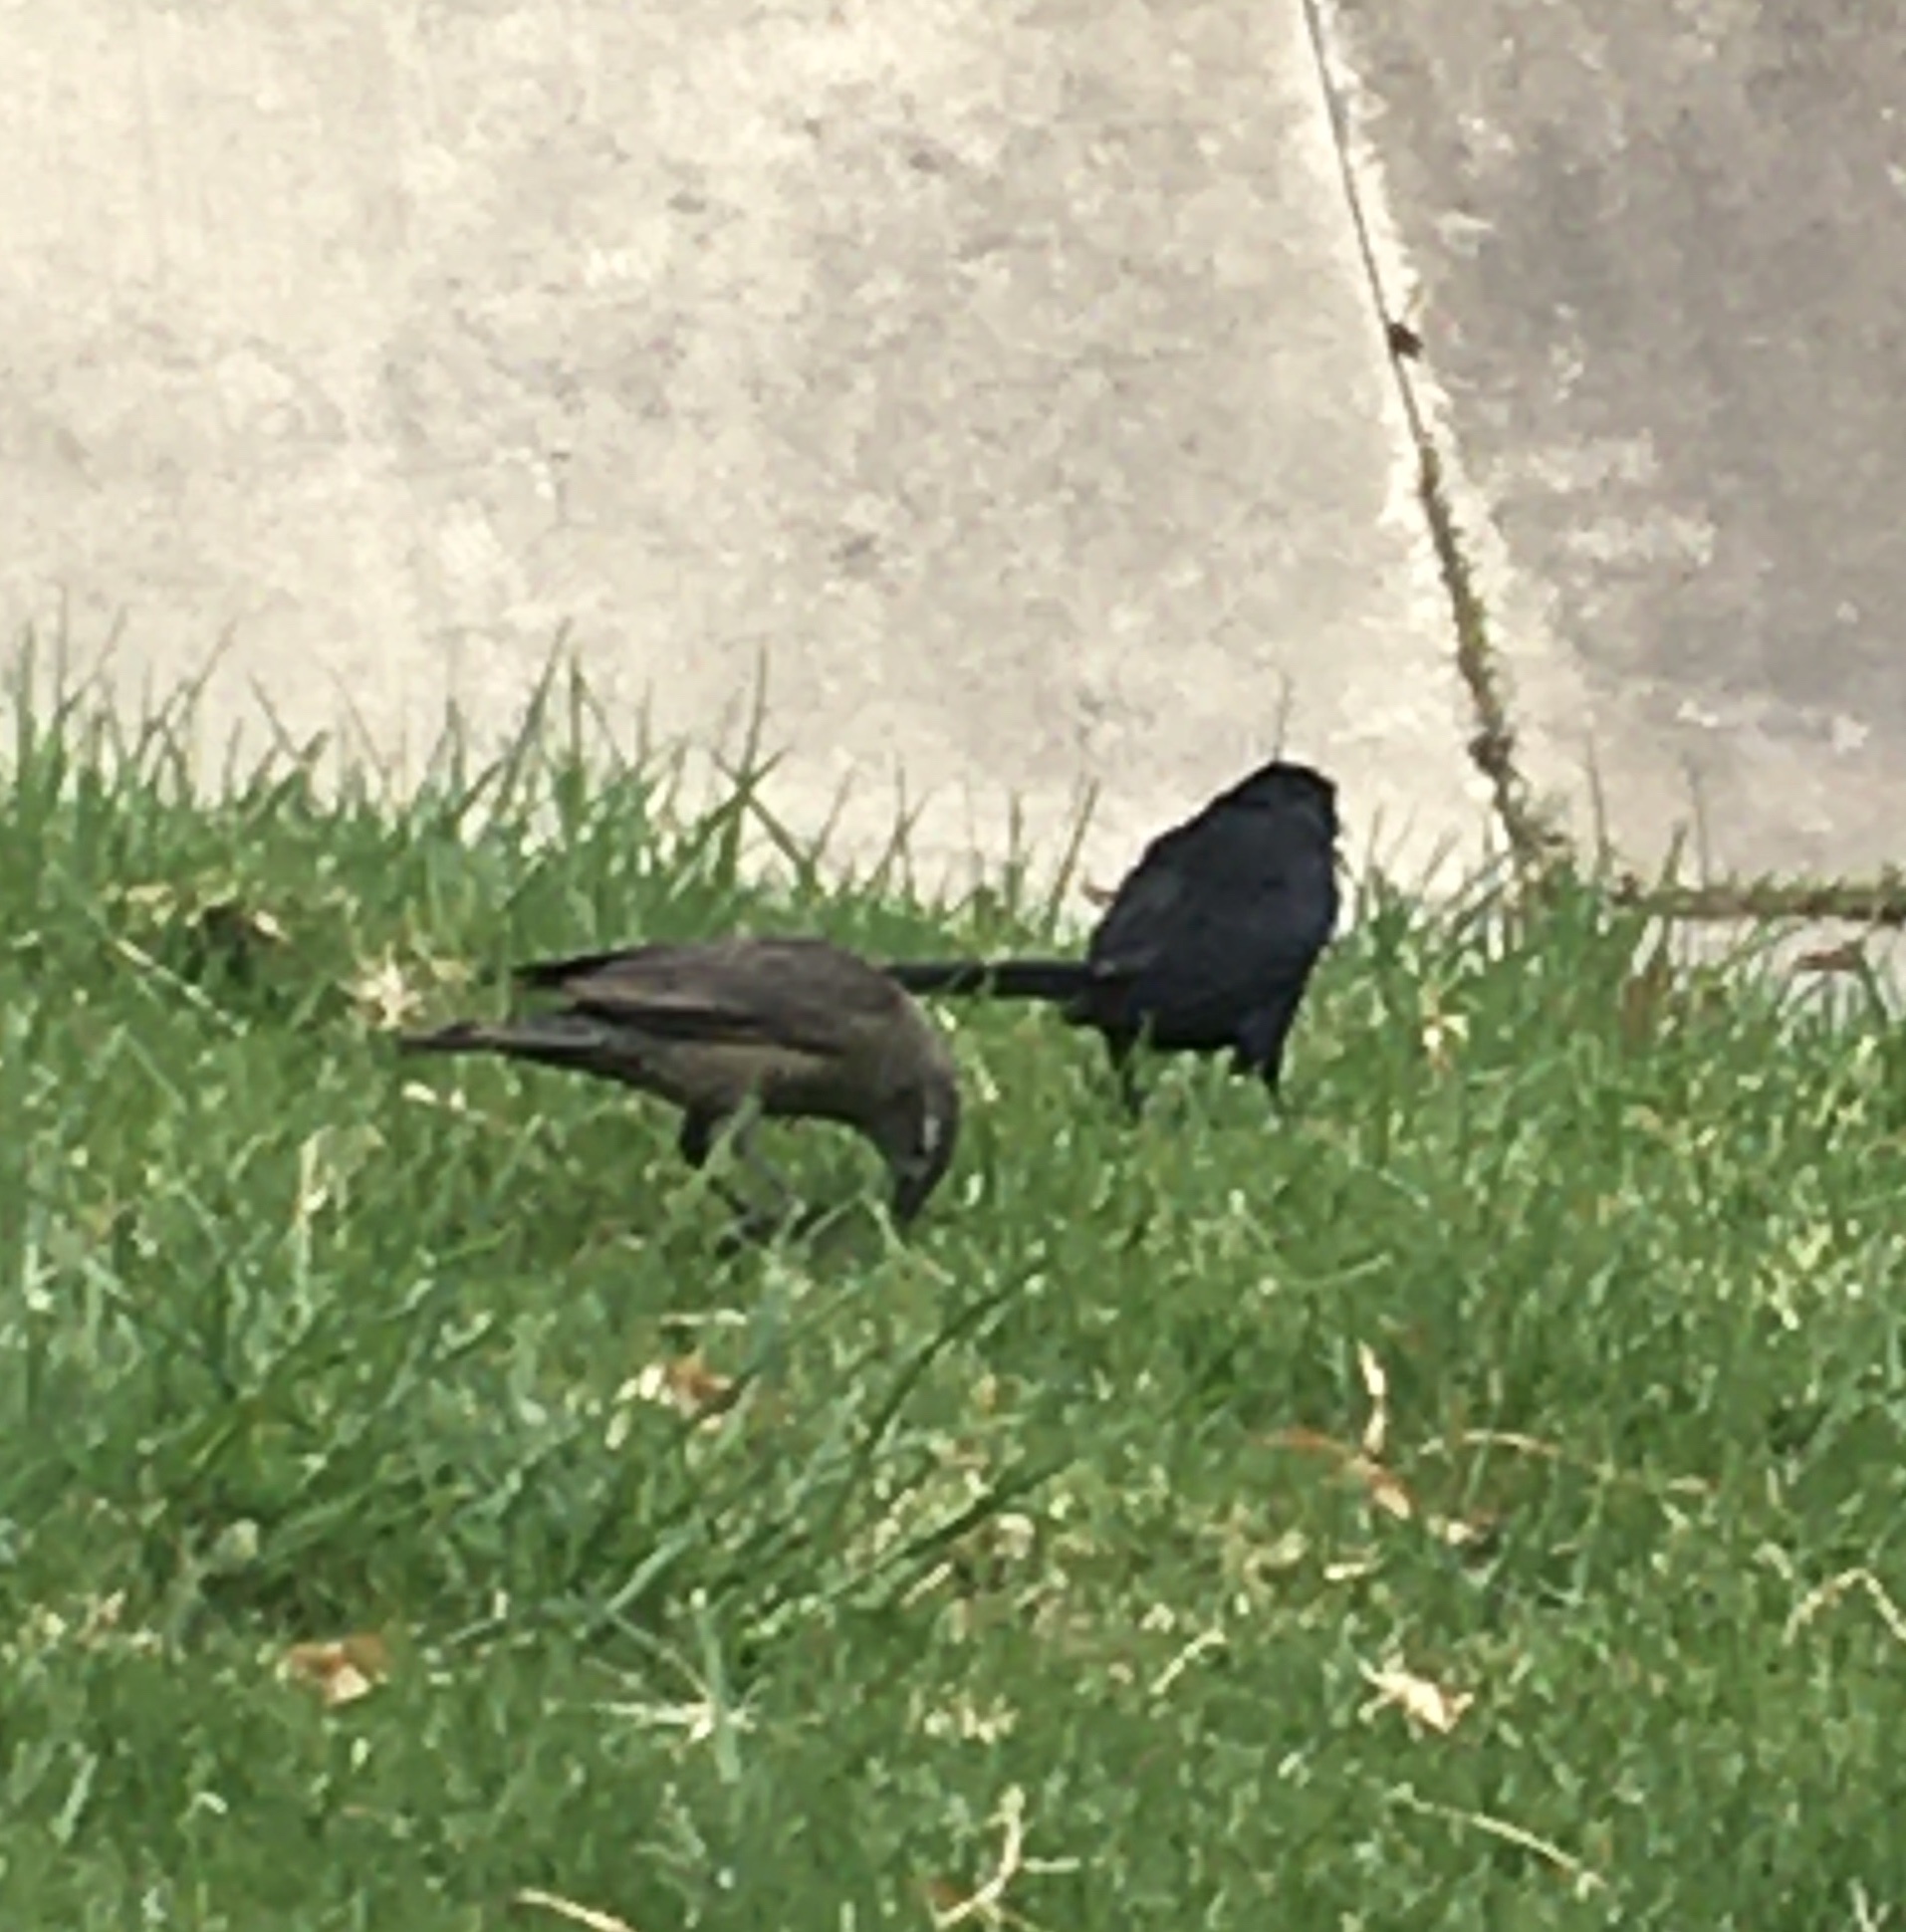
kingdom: Animalia
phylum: Chordata
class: Aves
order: Passeriformes
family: Icteridae
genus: Molothrus
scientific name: Molothrus bonariensis
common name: Shiny cowbird
